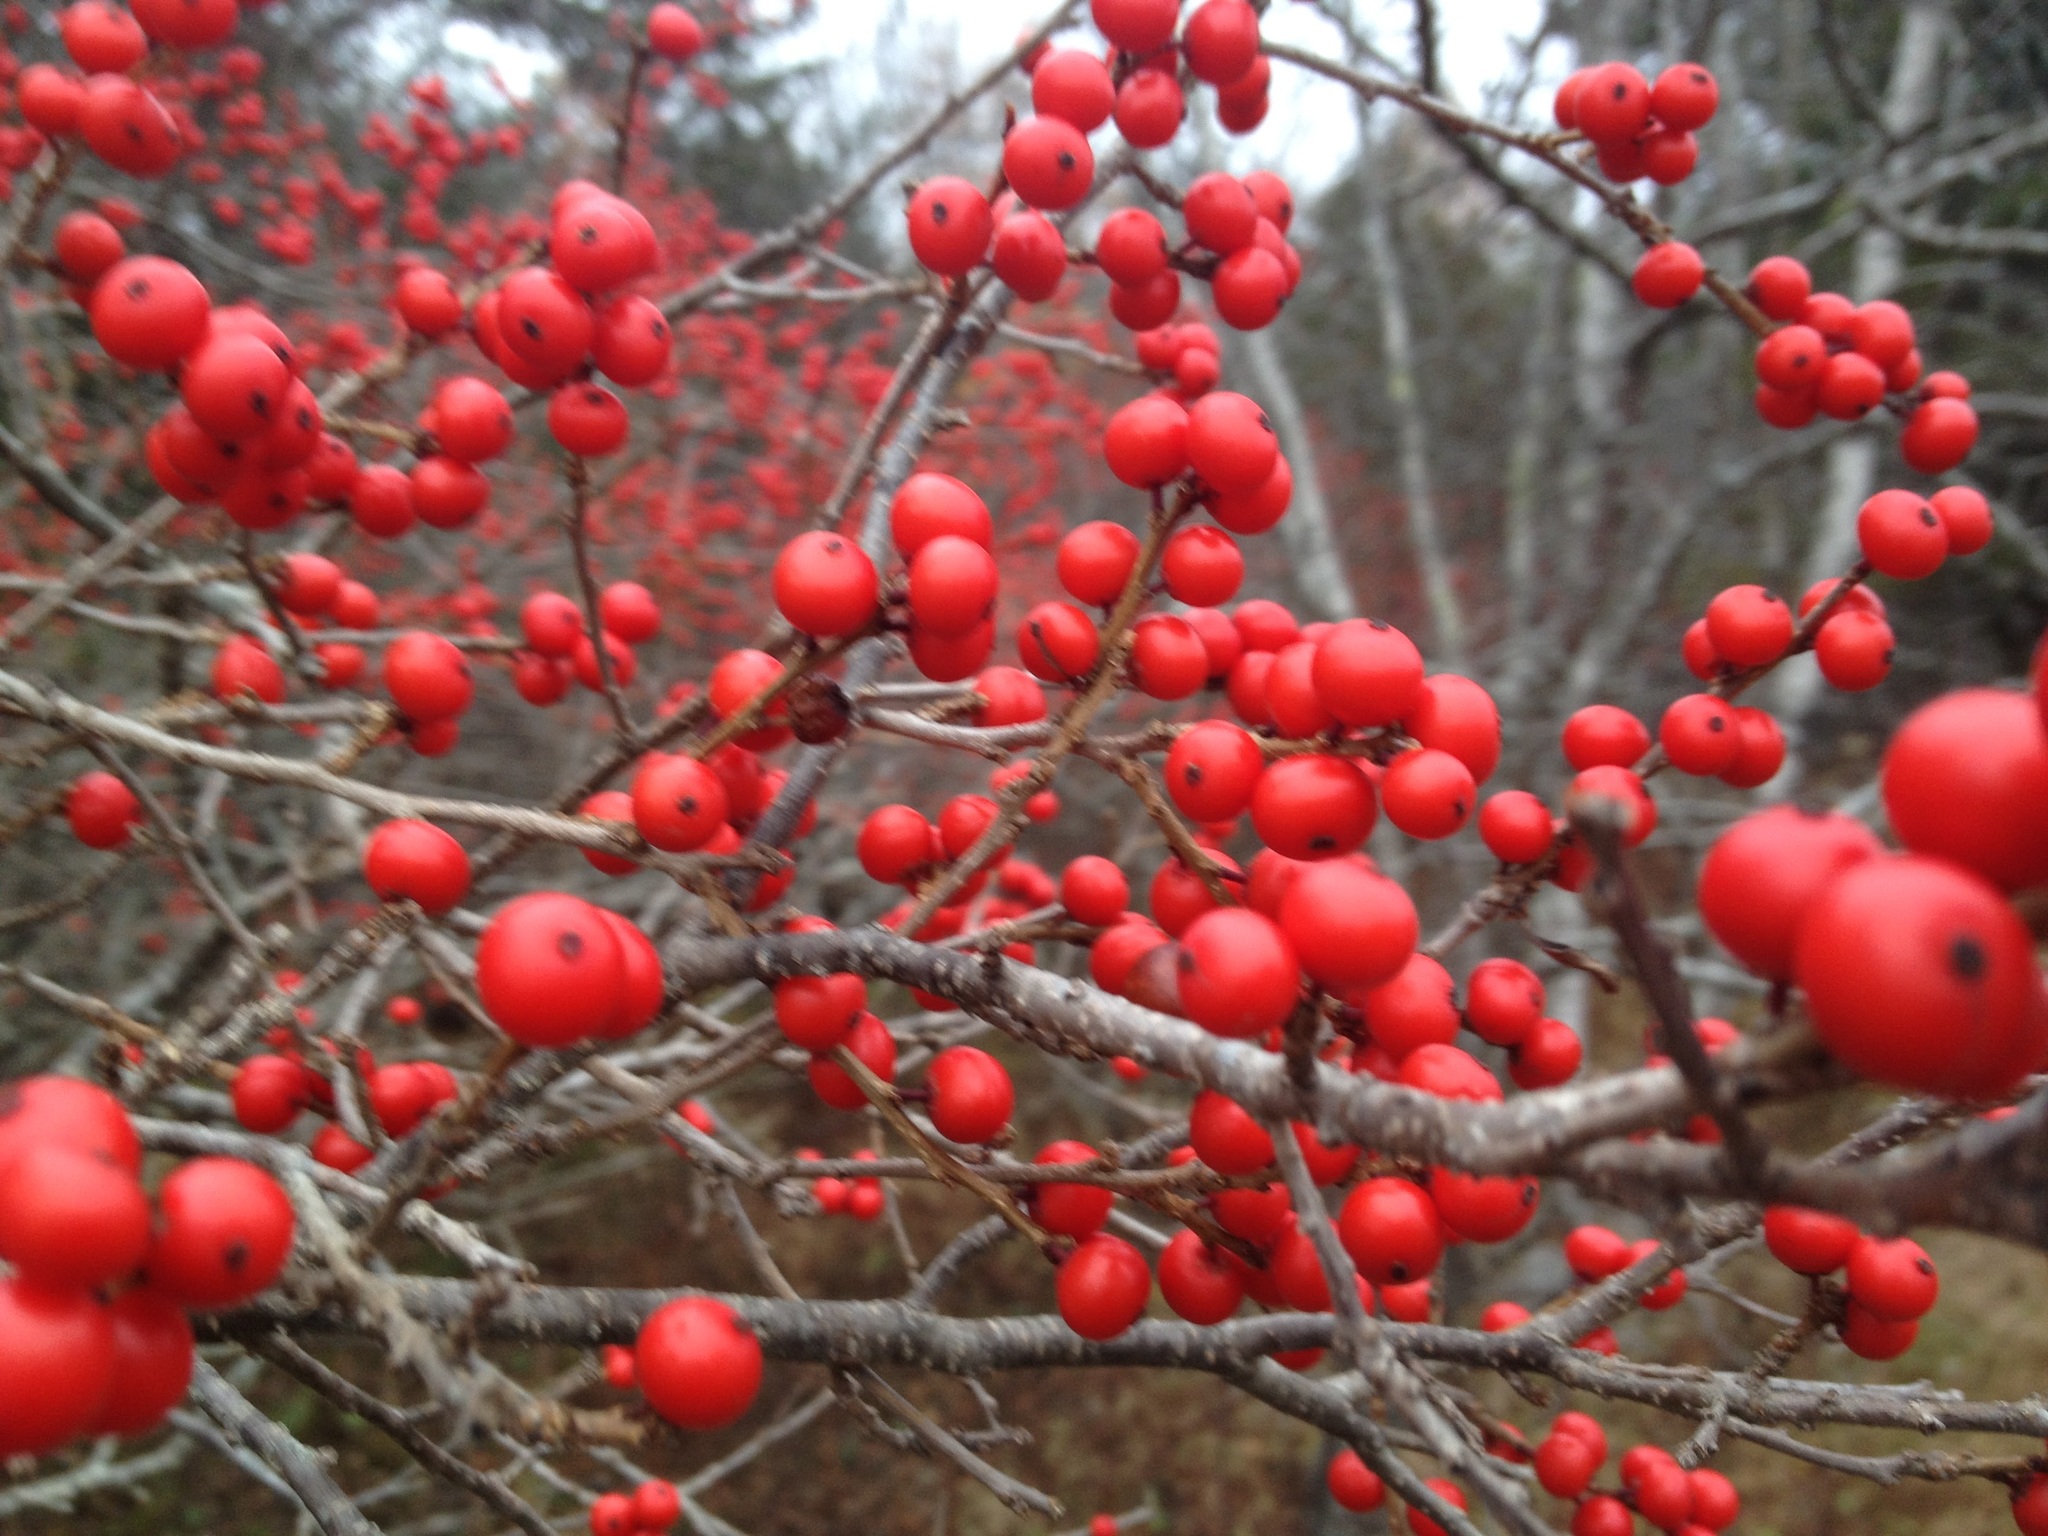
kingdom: Plantae
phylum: Tracheophyta
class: Magnoliopsida
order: Aquifoliales
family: Aquifoliaceae
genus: Ilex
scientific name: Ilex verticillata
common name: Virginia winterberry
